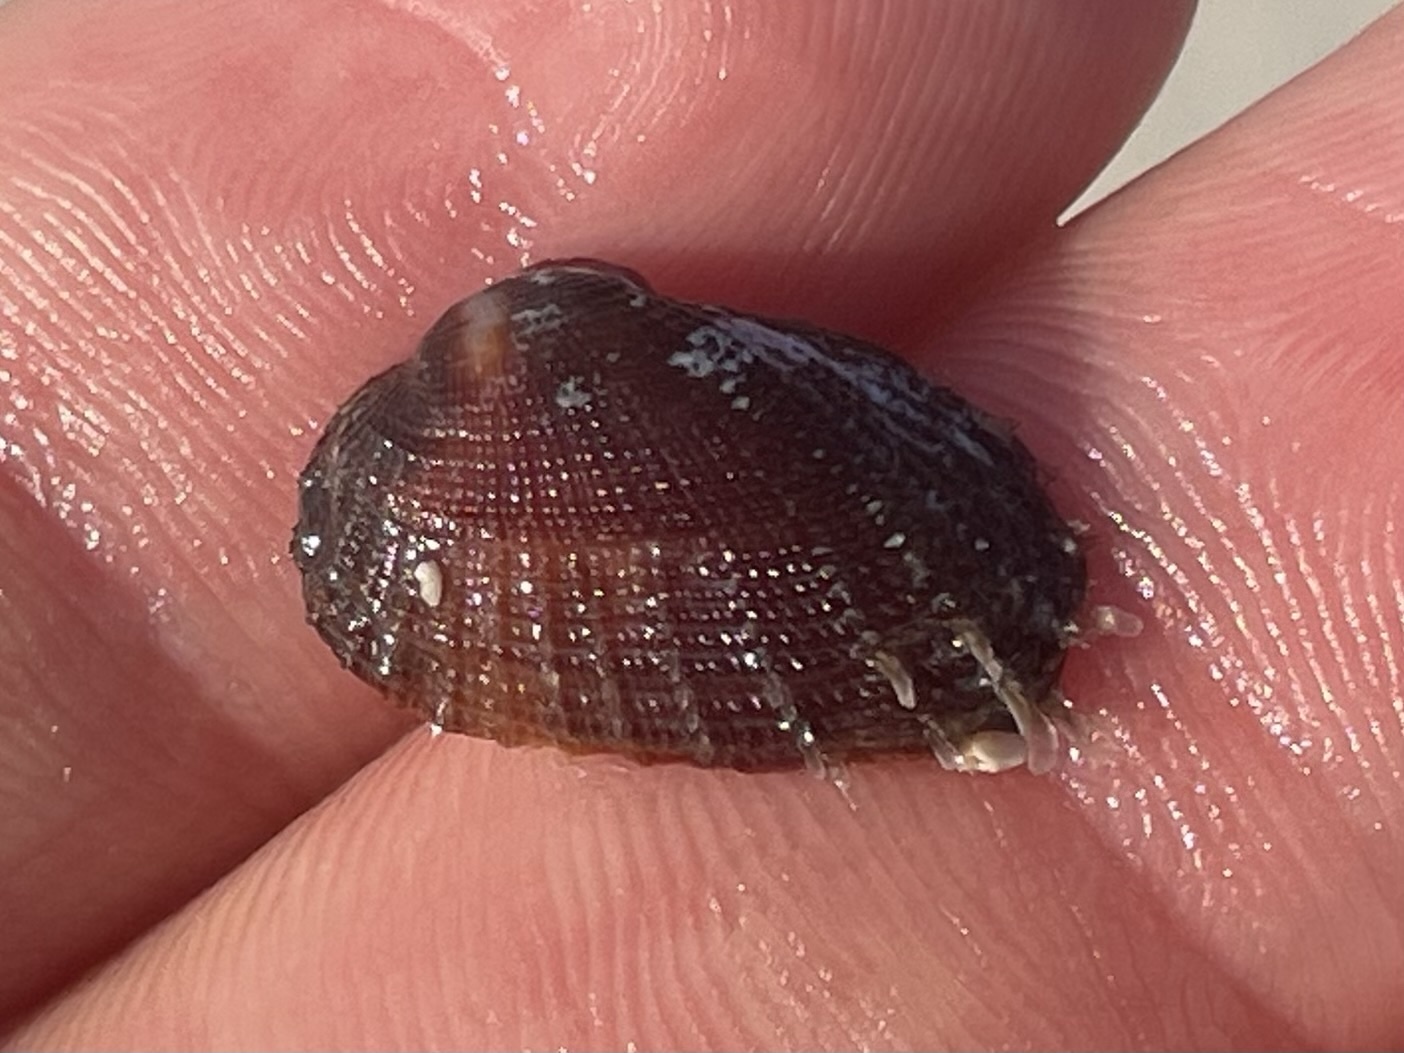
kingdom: Animalia
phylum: Mollusca
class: Bivalvia
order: Arcida
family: Arcidae
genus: Barbatia
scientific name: Barbatia domingensis
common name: White miniature ark
